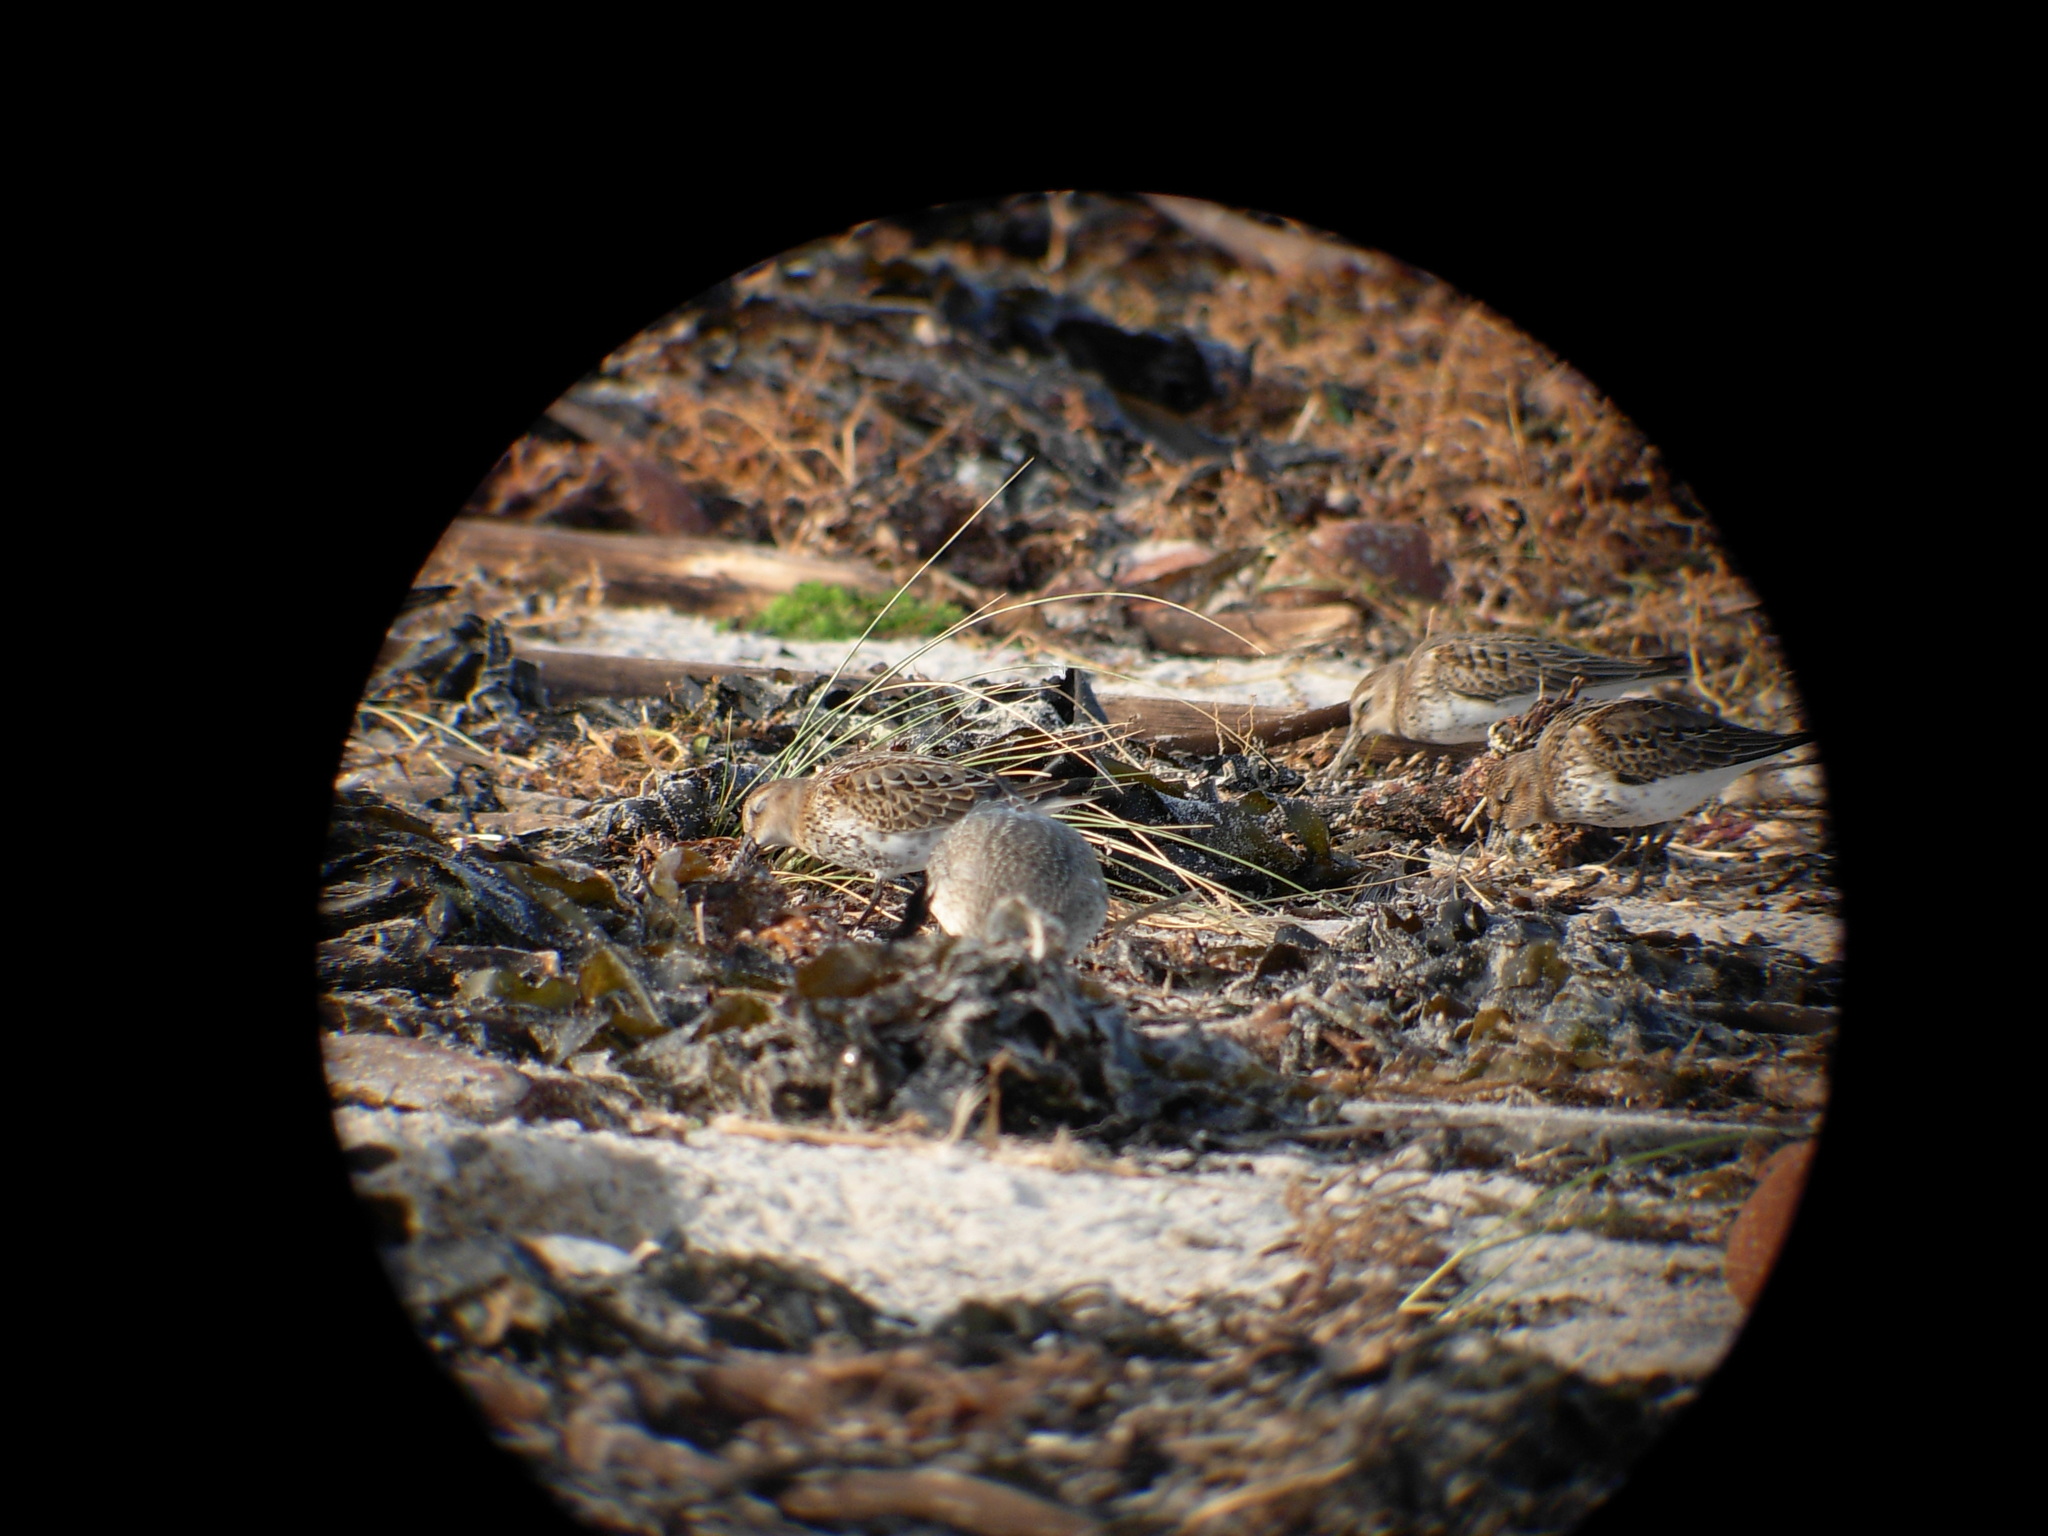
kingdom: Animalia
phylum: Chordata
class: Aves
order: Charadriiformes
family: Scolopacidae
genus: Calidris
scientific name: Calidris alpina
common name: Dunlin
